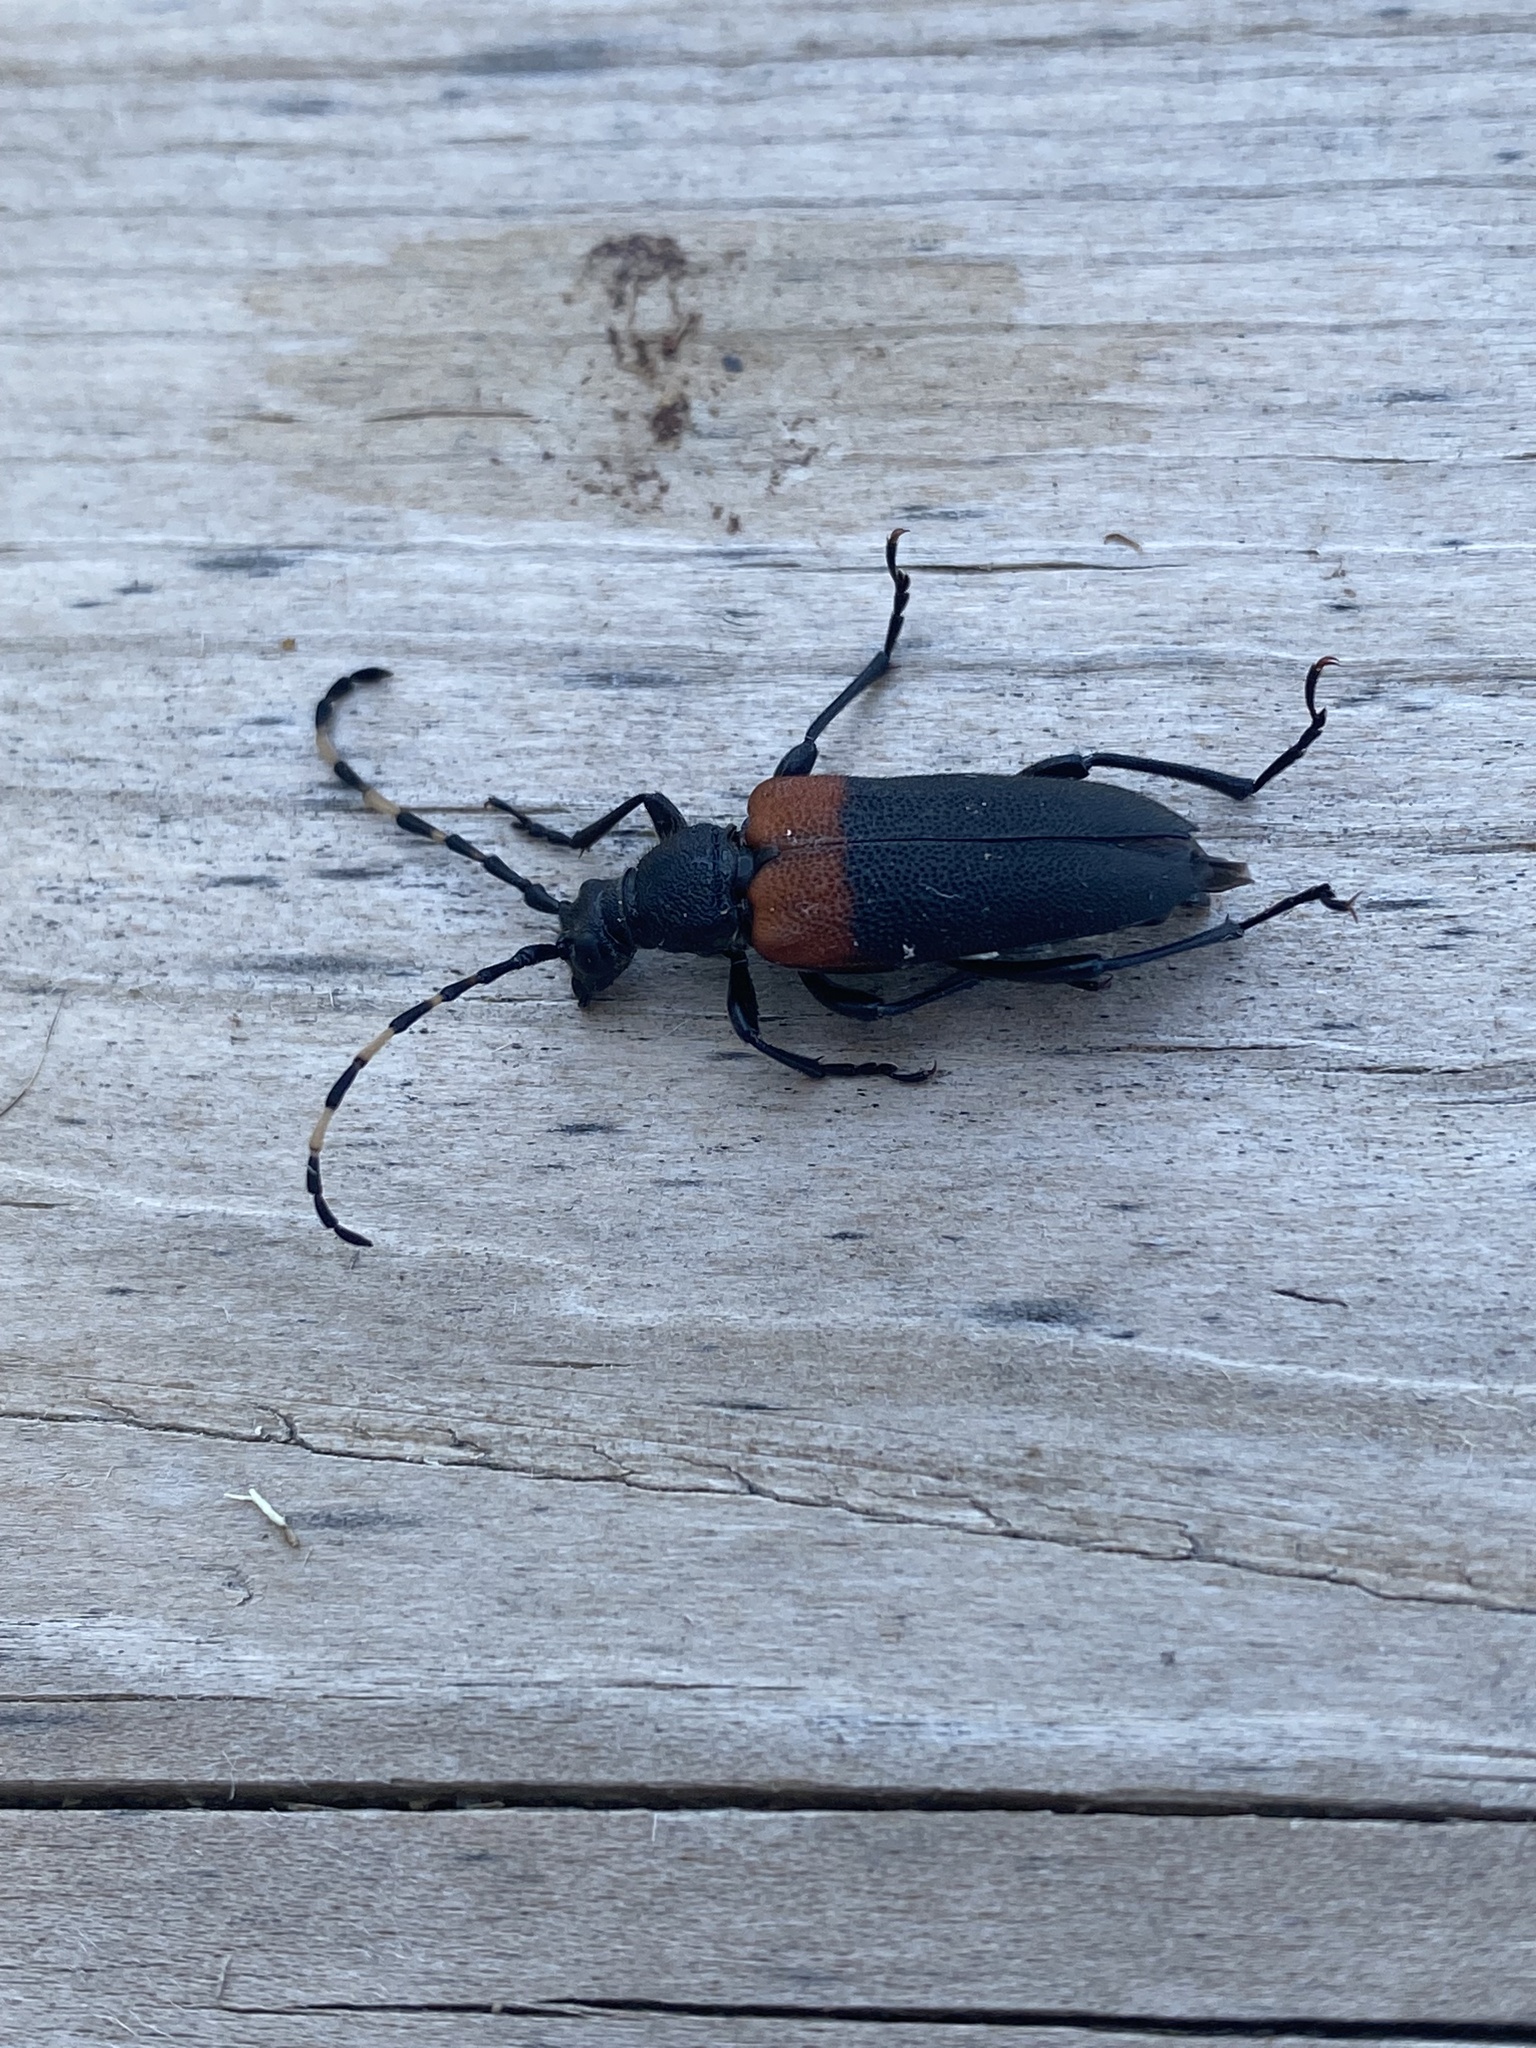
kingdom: Animalia
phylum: Arthropoda
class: Insecta
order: Coleoptera
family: Cerambycidae
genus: Stictoleptura
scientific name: Stictoleptura canadensis
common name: Red-shouldered pine borer
